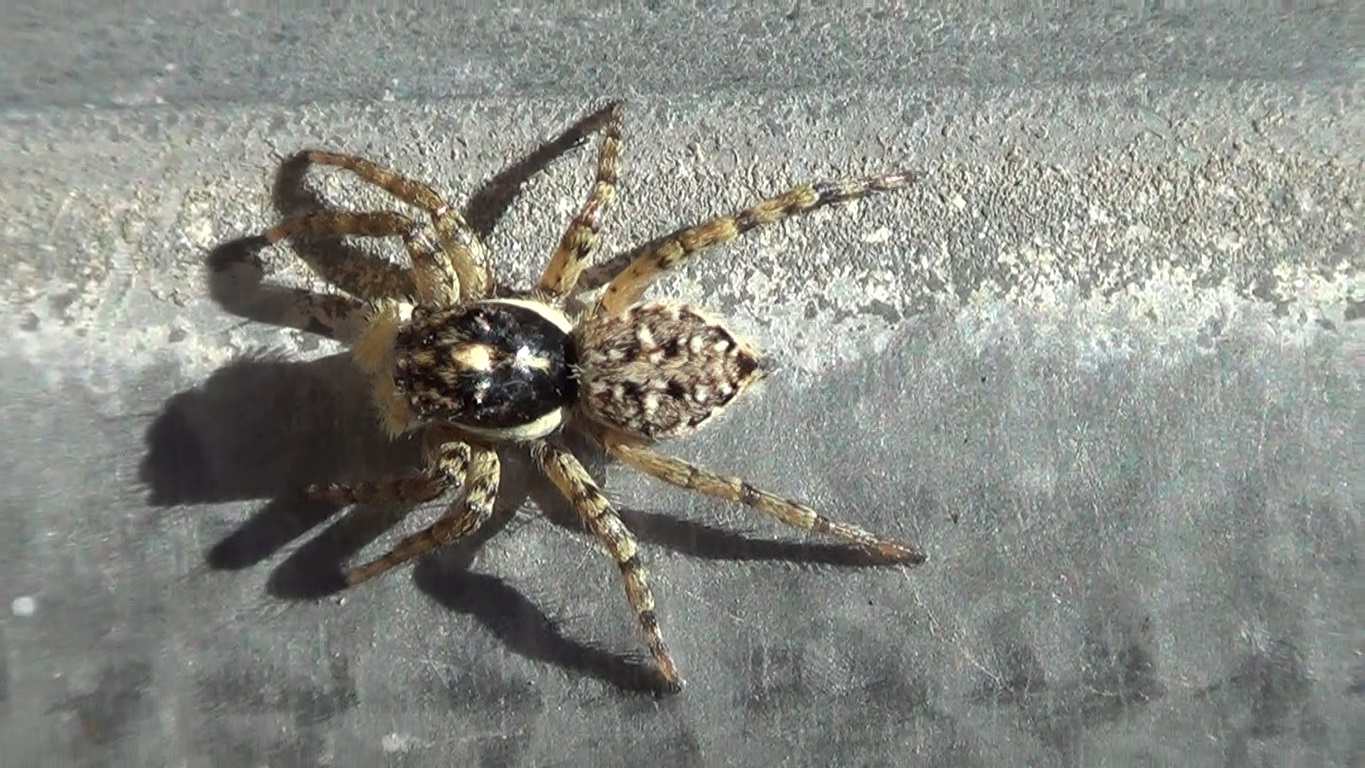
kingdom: Animalia
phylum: Arthropoda
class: Arachnida
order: Araneae
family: Salticidae
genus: Menemerus
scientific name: Menemerus semilimbatus
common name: Jumping spider
